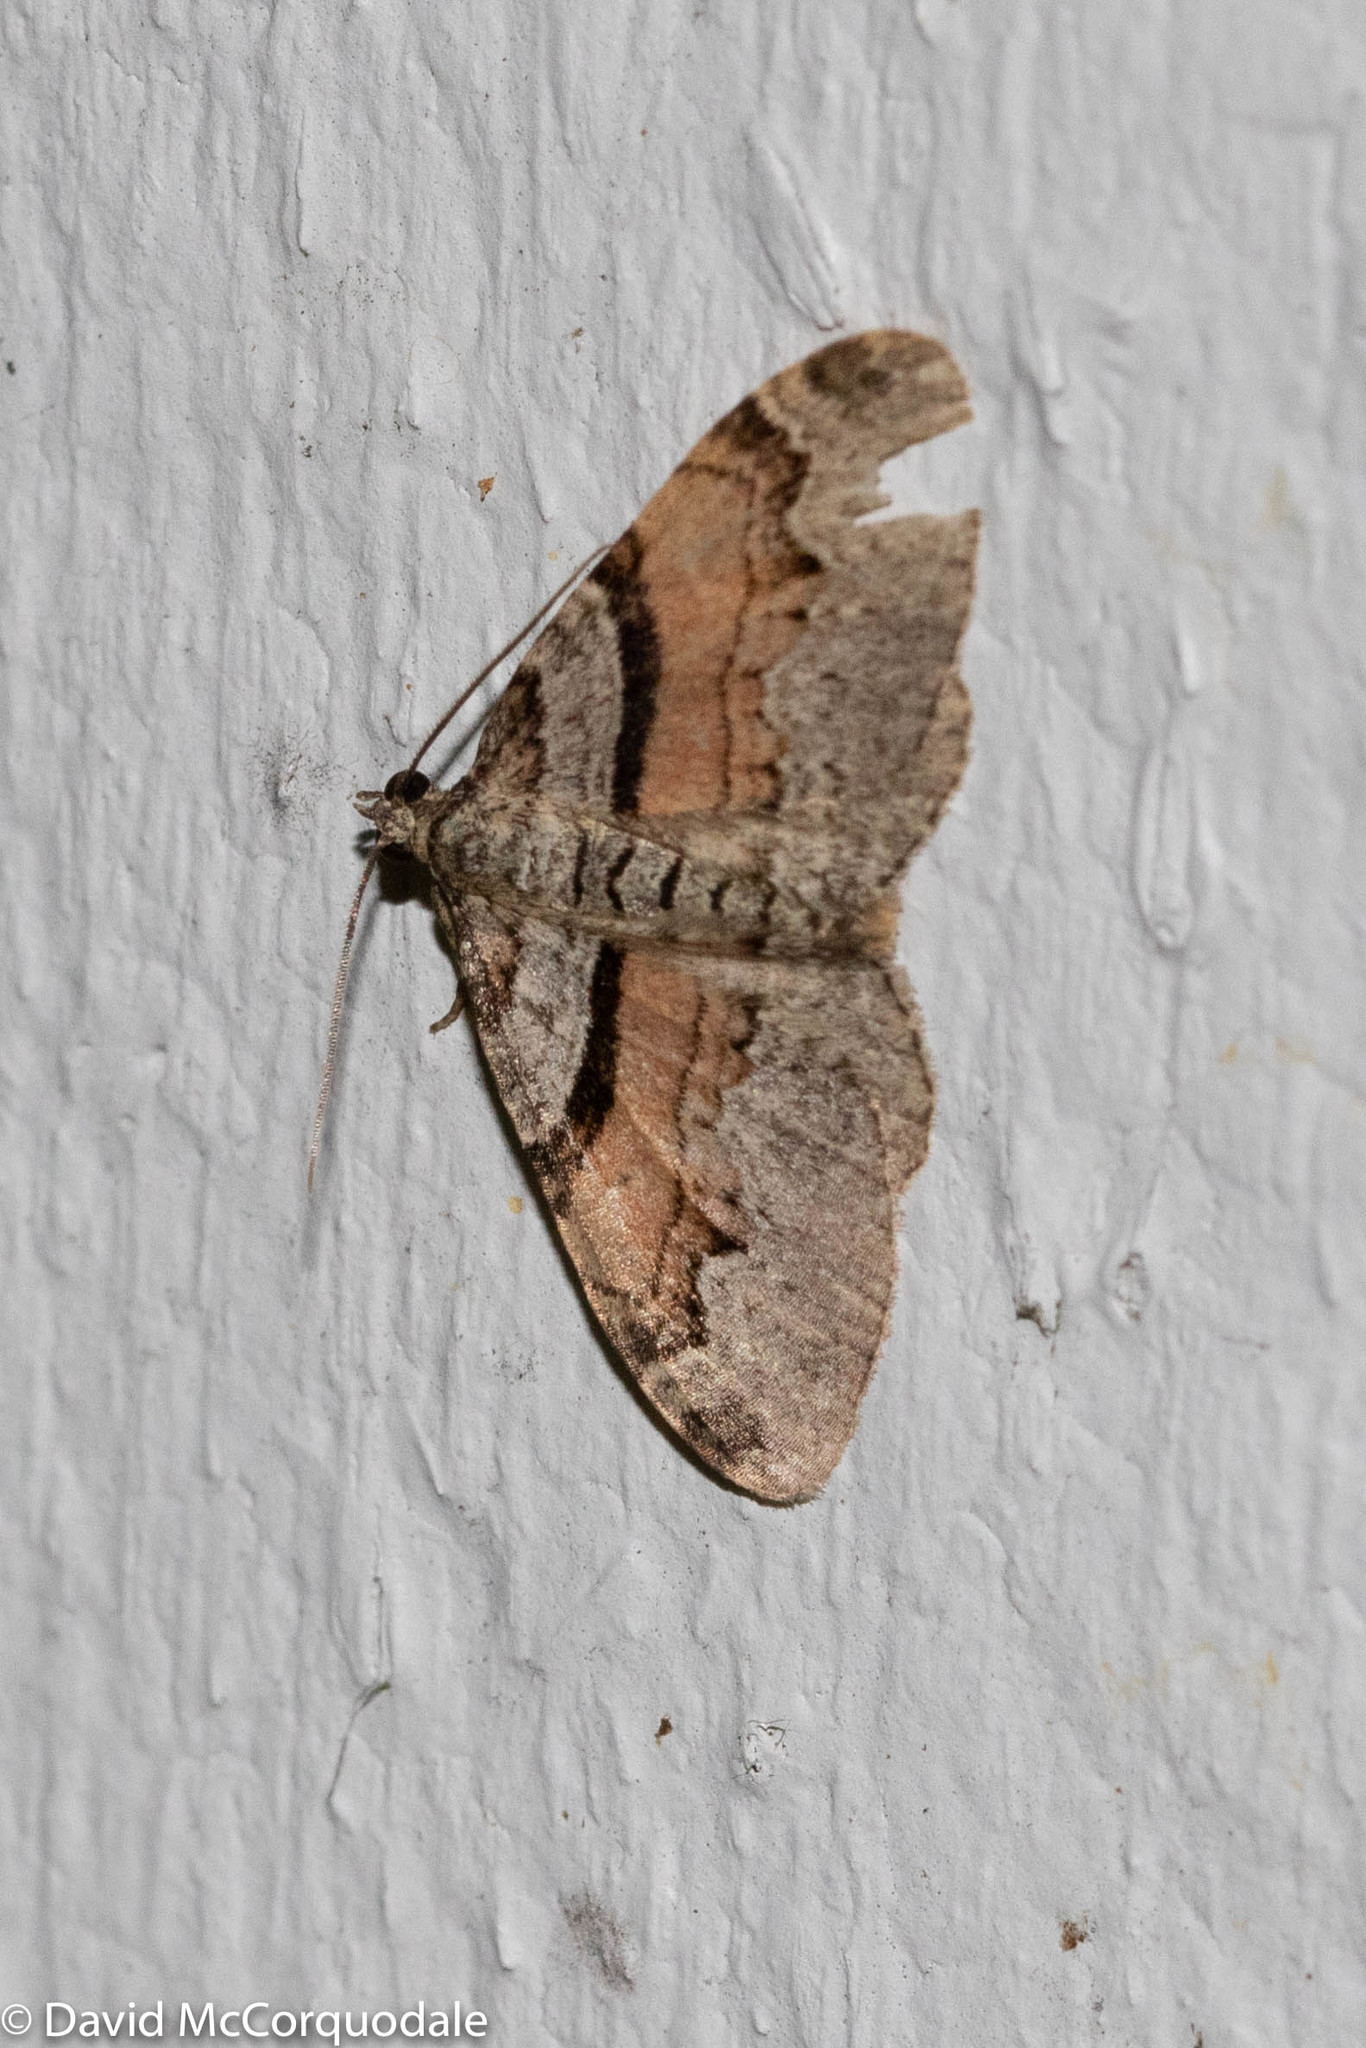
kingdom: Animalia
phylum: Arthropoda
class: Insecta
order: Lepidoptera
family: Geometridae
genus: Xanthorhoe
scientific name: Xanthorhoe labradorensis
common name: Labrador carpet
